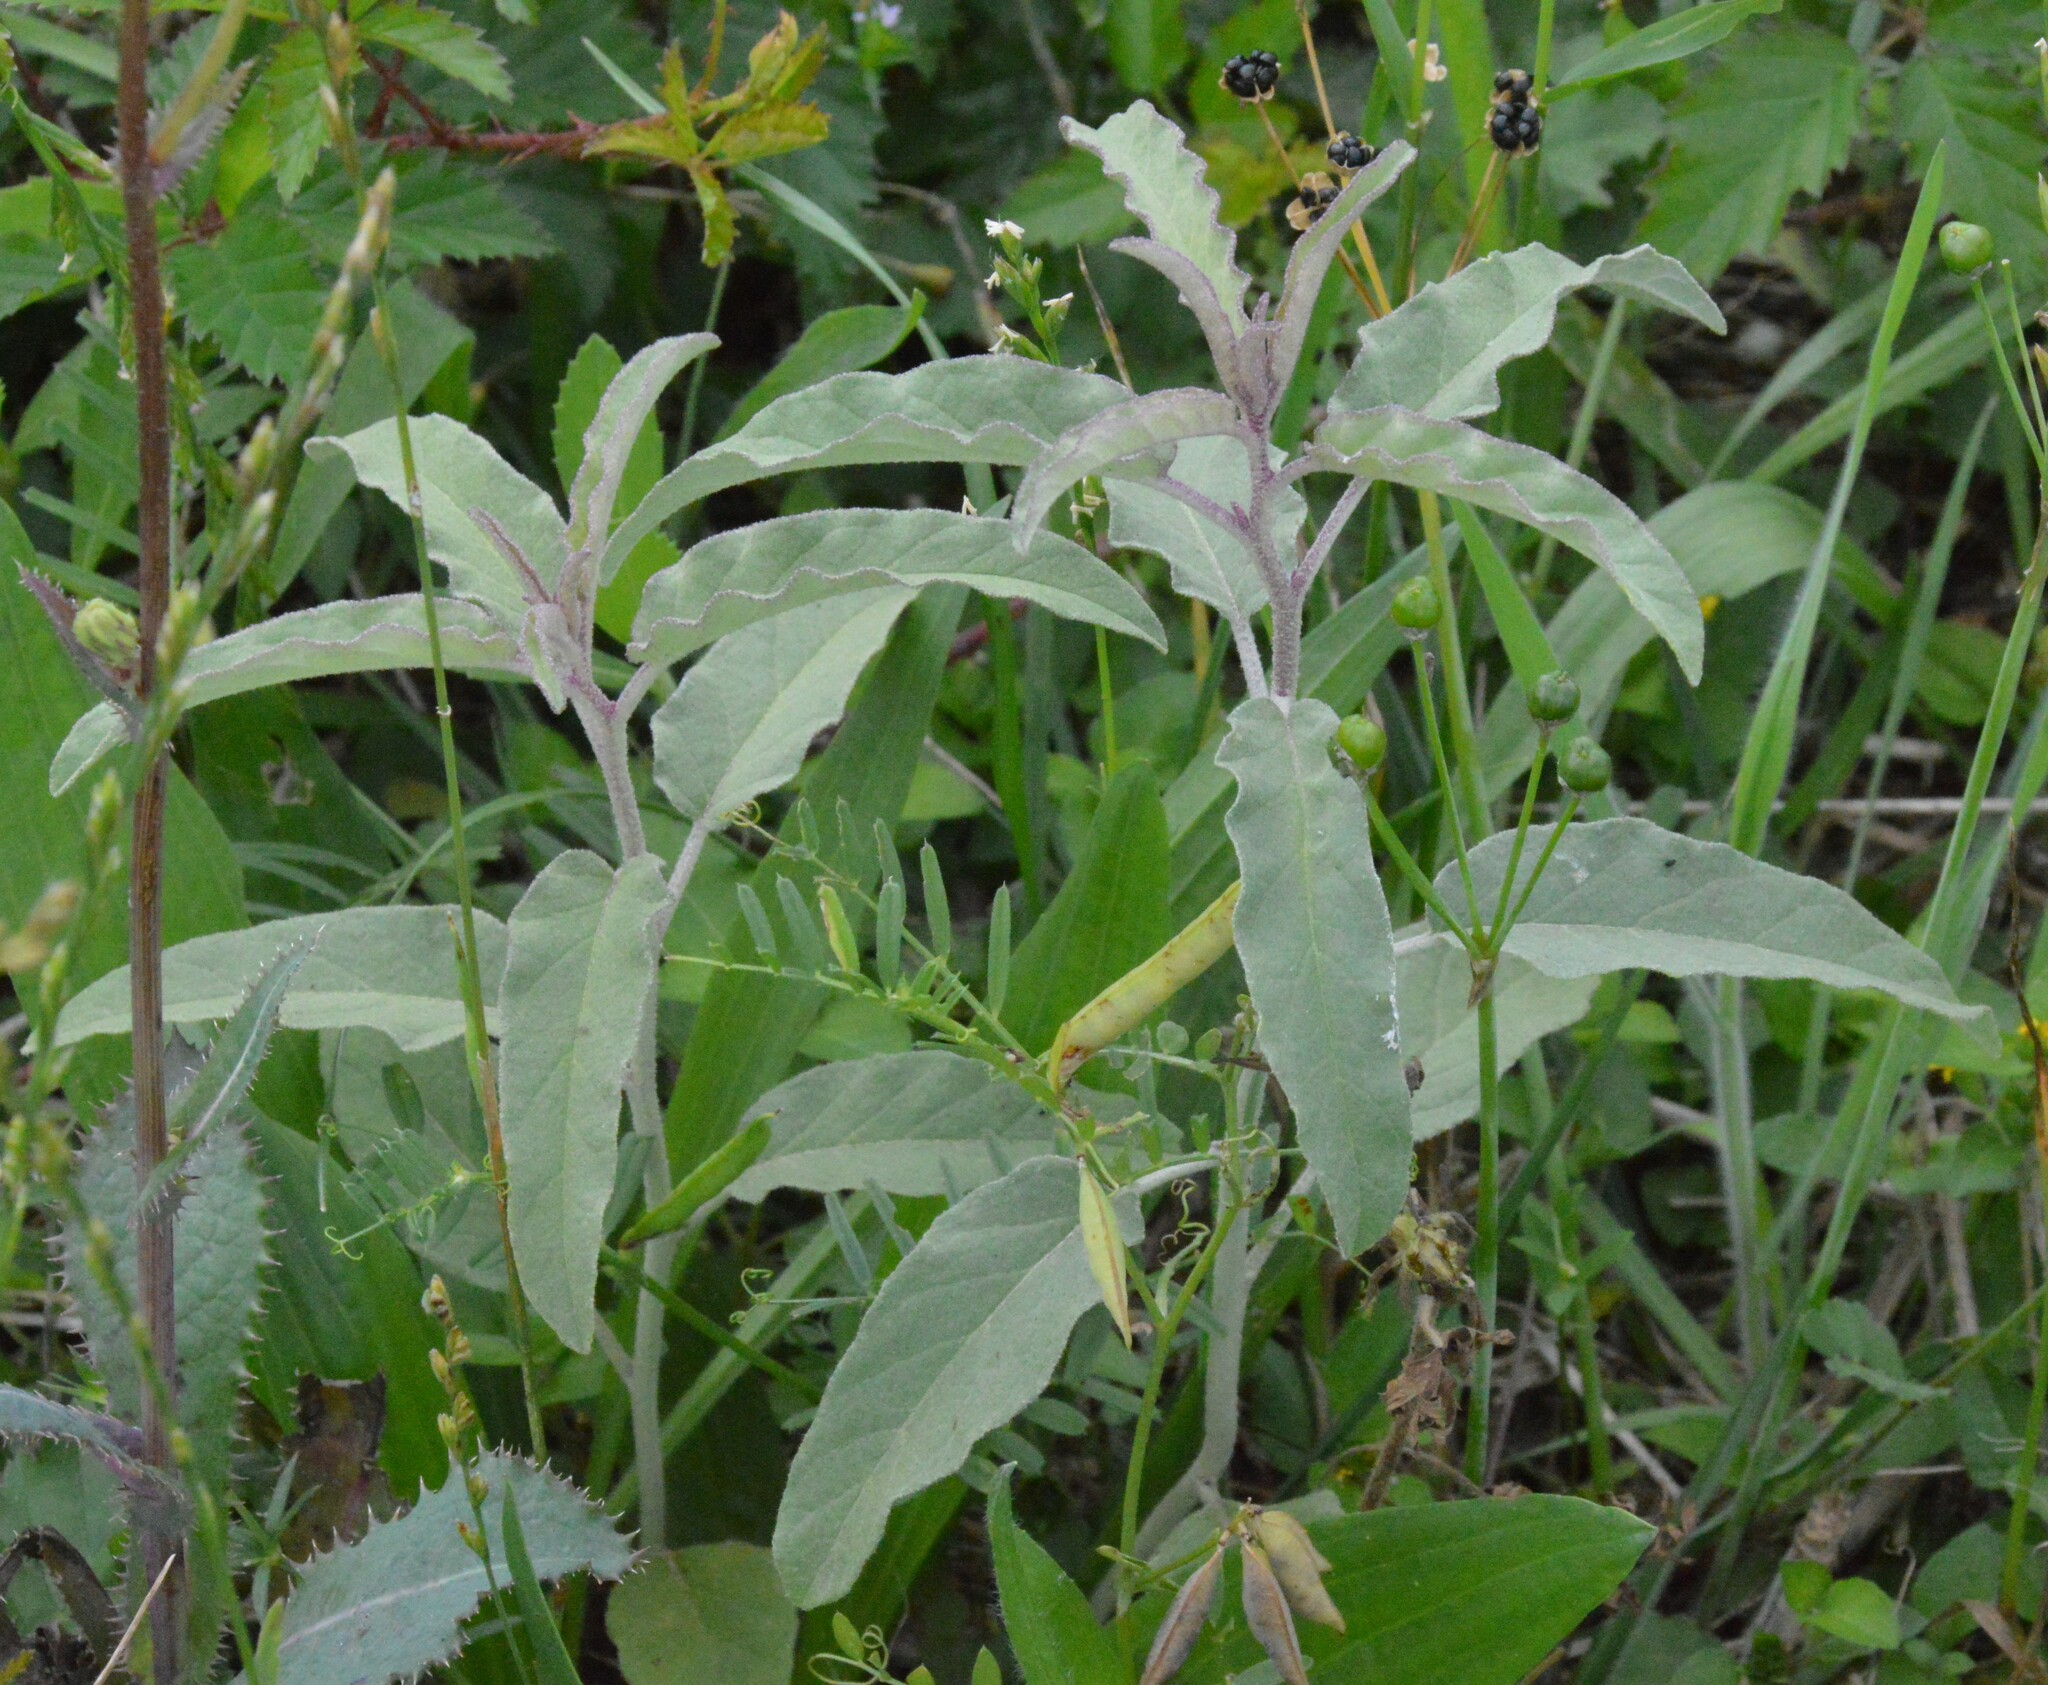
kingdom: Plantae
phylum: Tracheophyta
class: Magnoliopsida
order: Solanales
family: Solanaceae
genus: Solanum
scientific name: Solanum elaeagnifolium
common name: Silverleaf nightshade
